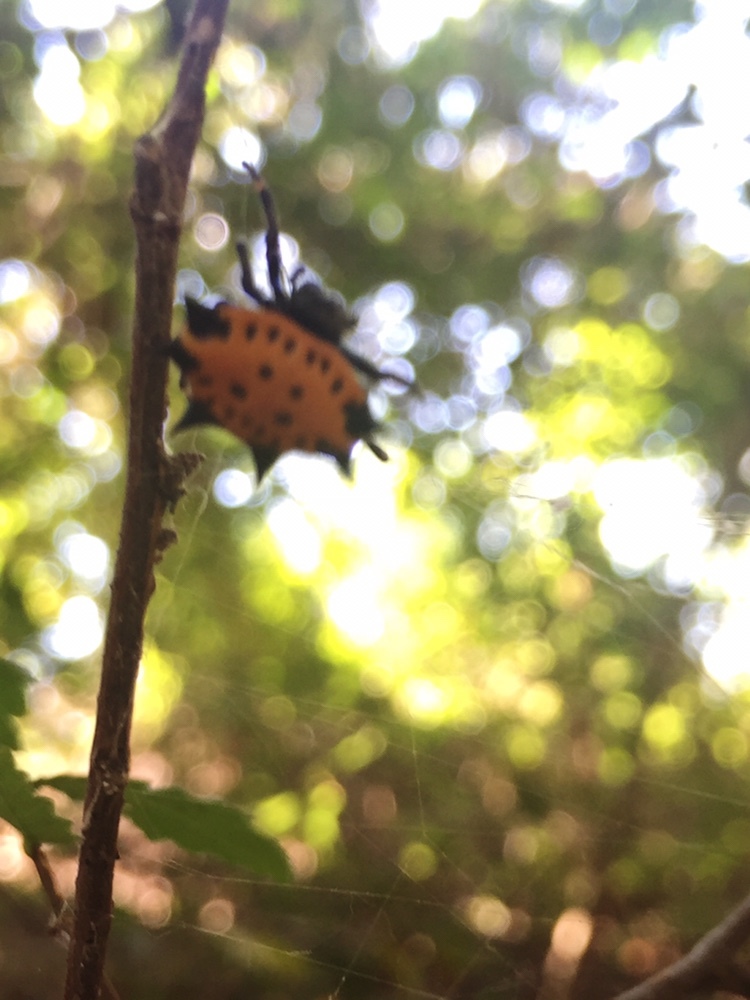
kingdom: Animalia
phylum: Arthropoda
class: Arachnida
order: Araneae
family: Araneidae
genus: Gasteracantha
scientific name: Gasteracantha cancriformis
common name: Orb weavers
